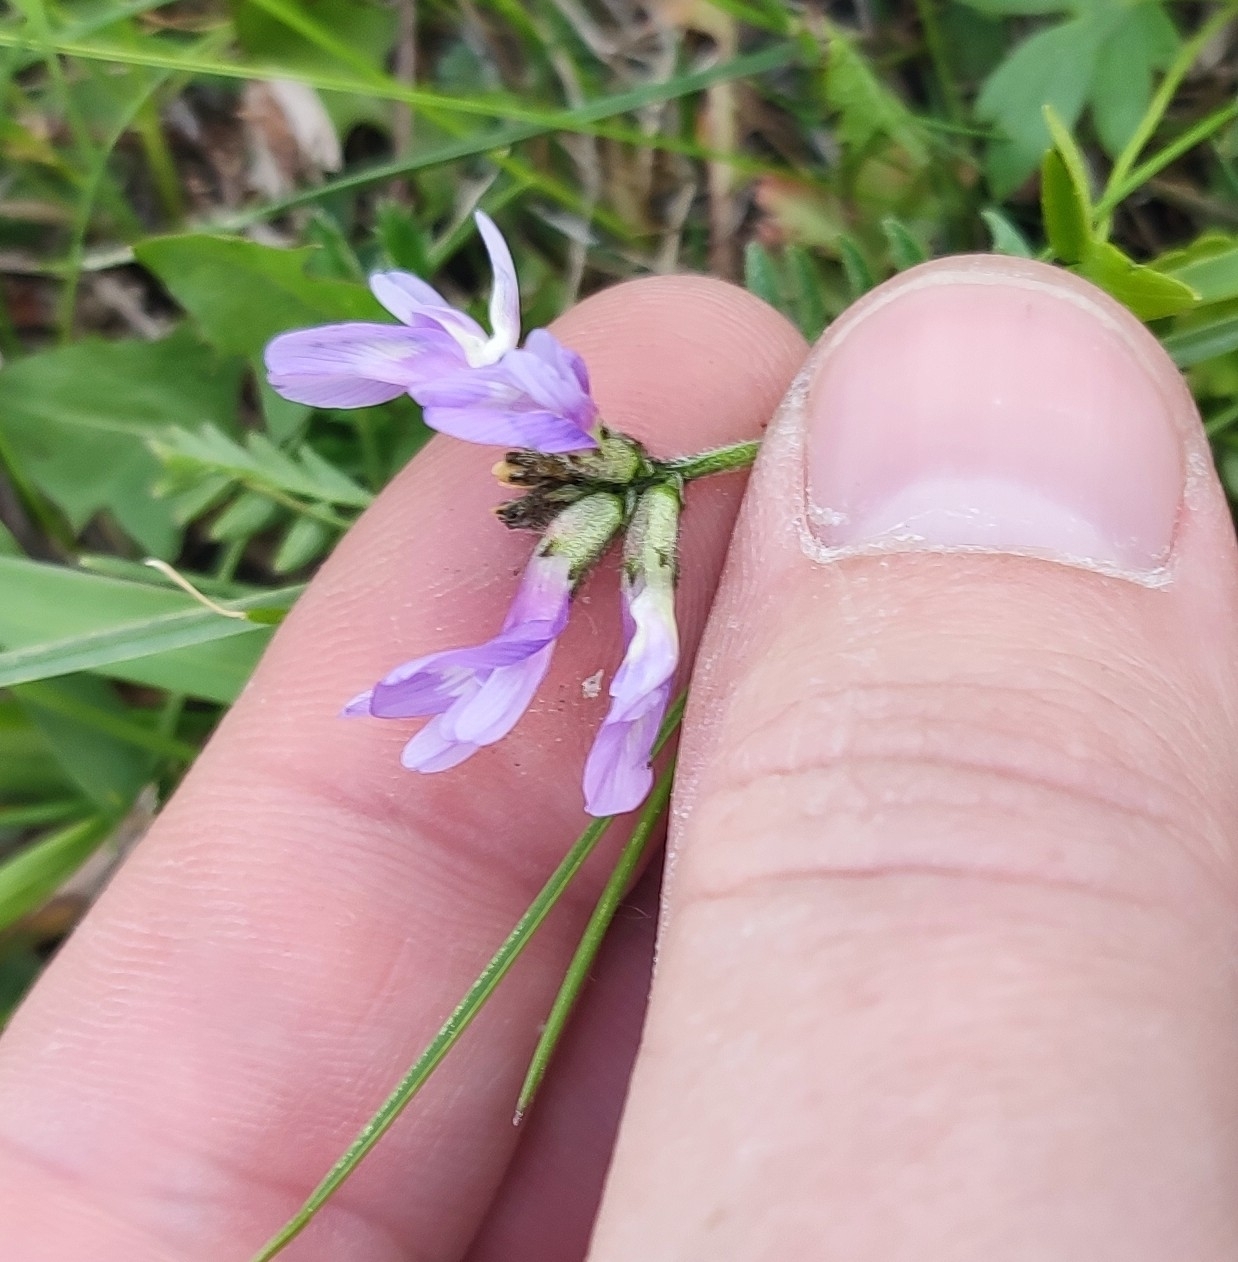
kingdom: Plantae
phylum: Tracheophyta
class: Magnoliopsida
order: Fabales
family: Fabaceae
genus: Astragalus
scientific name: Astragalus danicus
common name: Purple milk-vetch
